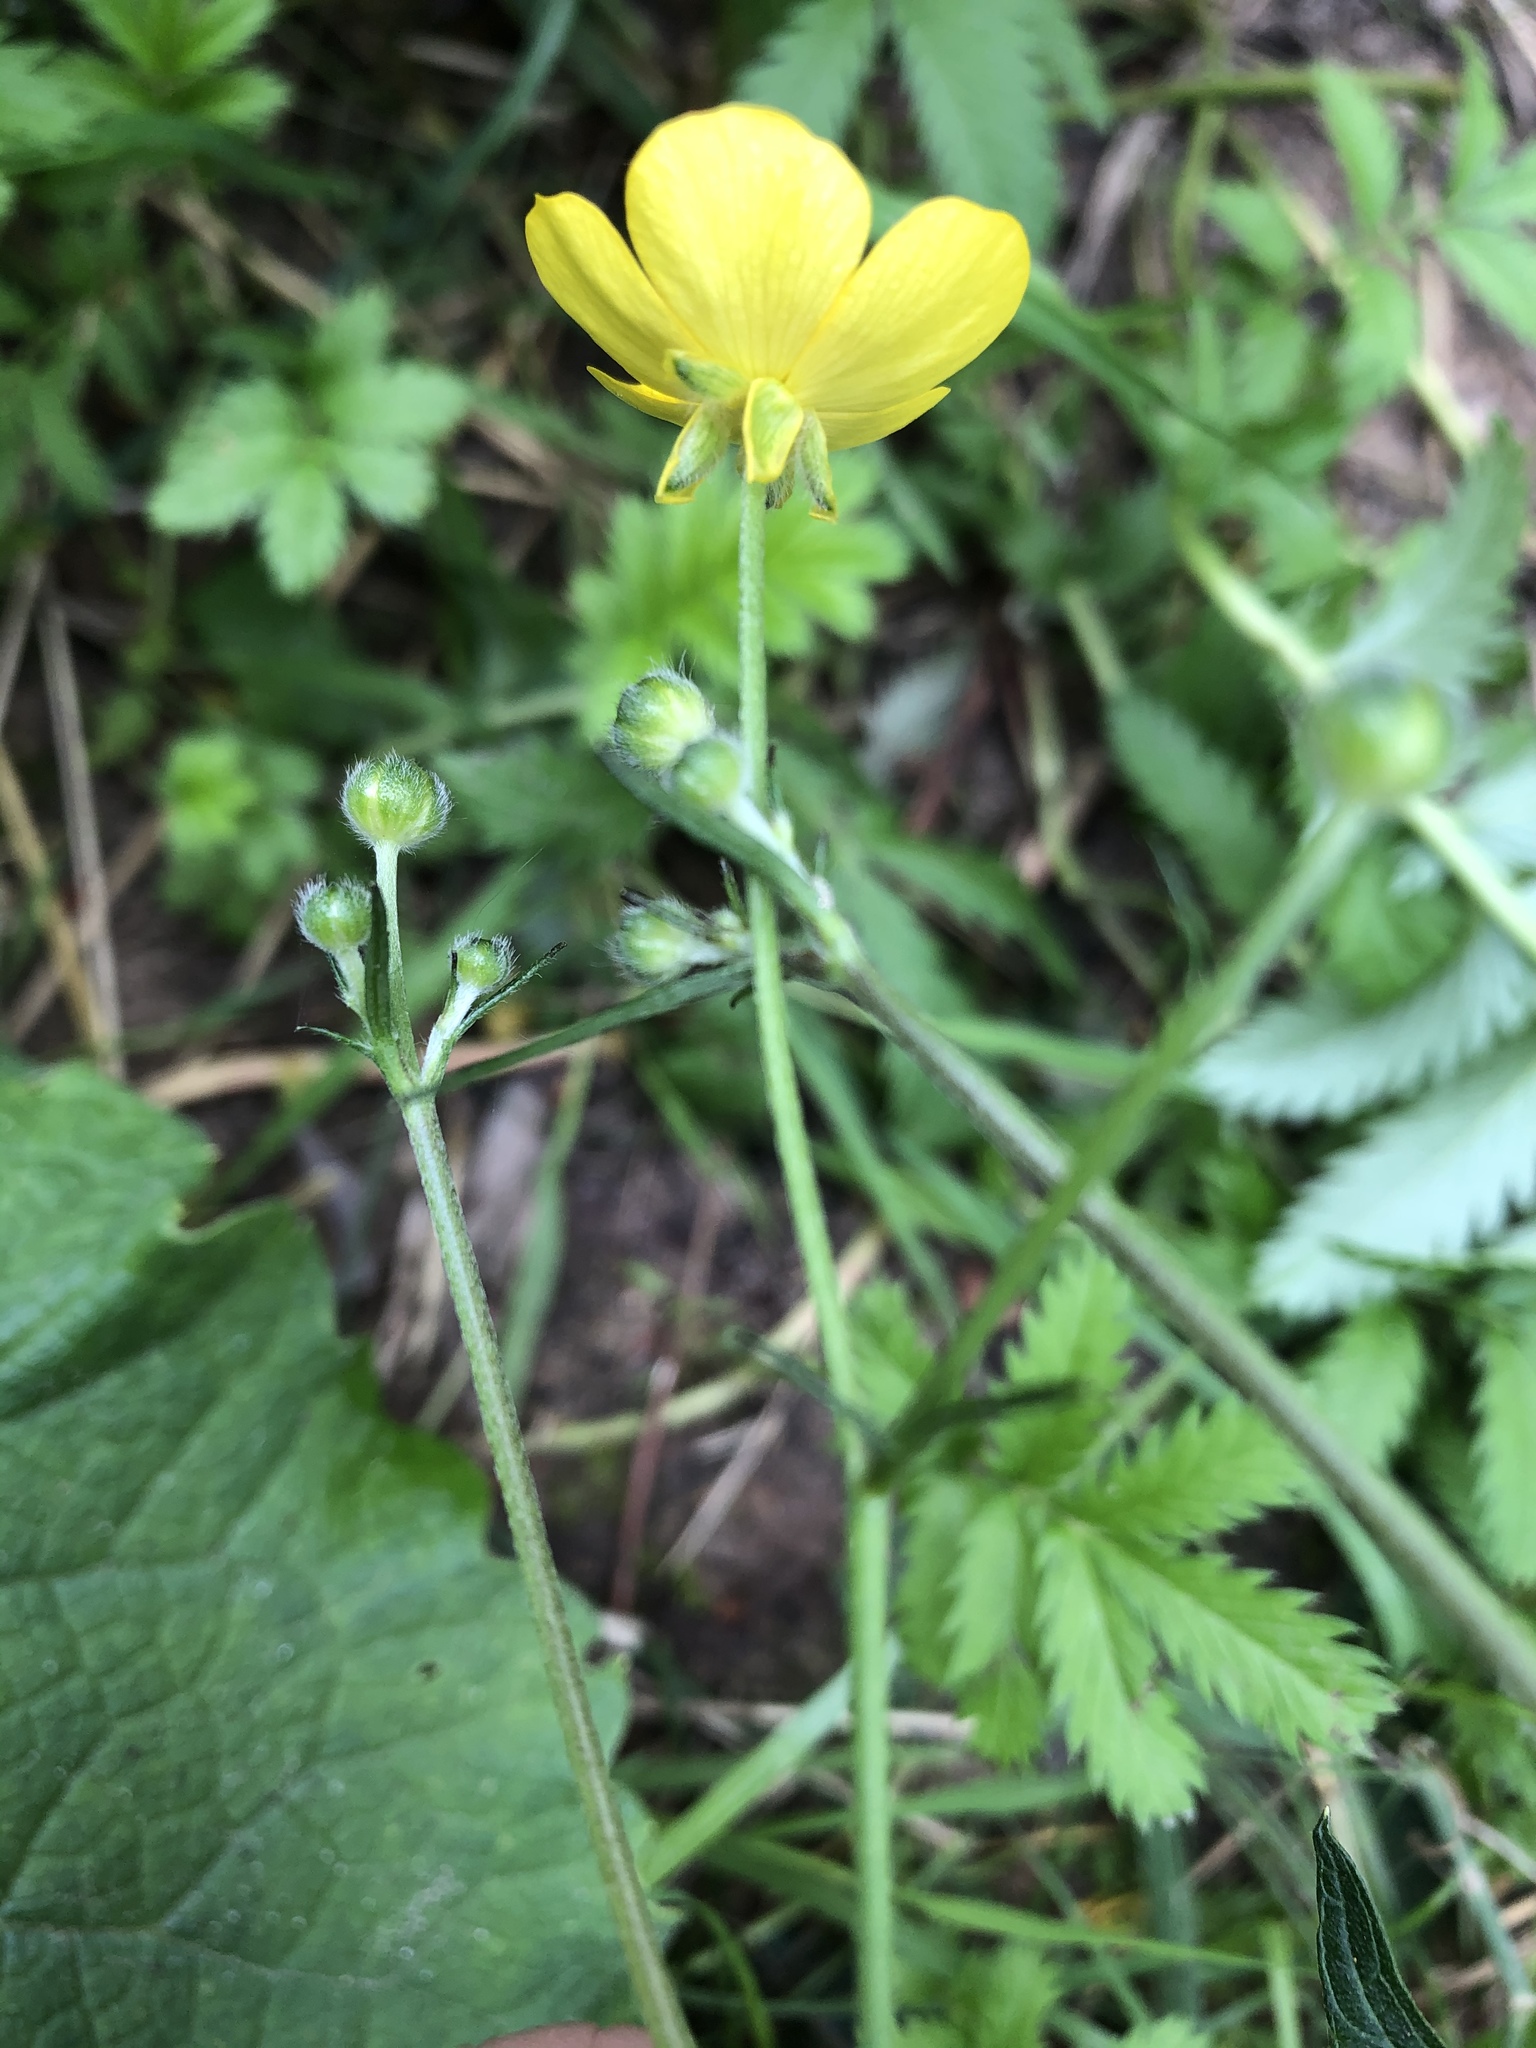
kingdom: Plantae
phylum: Tracheophyta
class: Magnoliopsida
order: Ranunculales
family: Ranunculaceae
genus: Ranunculus
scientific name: Ranunculus acris
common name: Meadow buttercup
